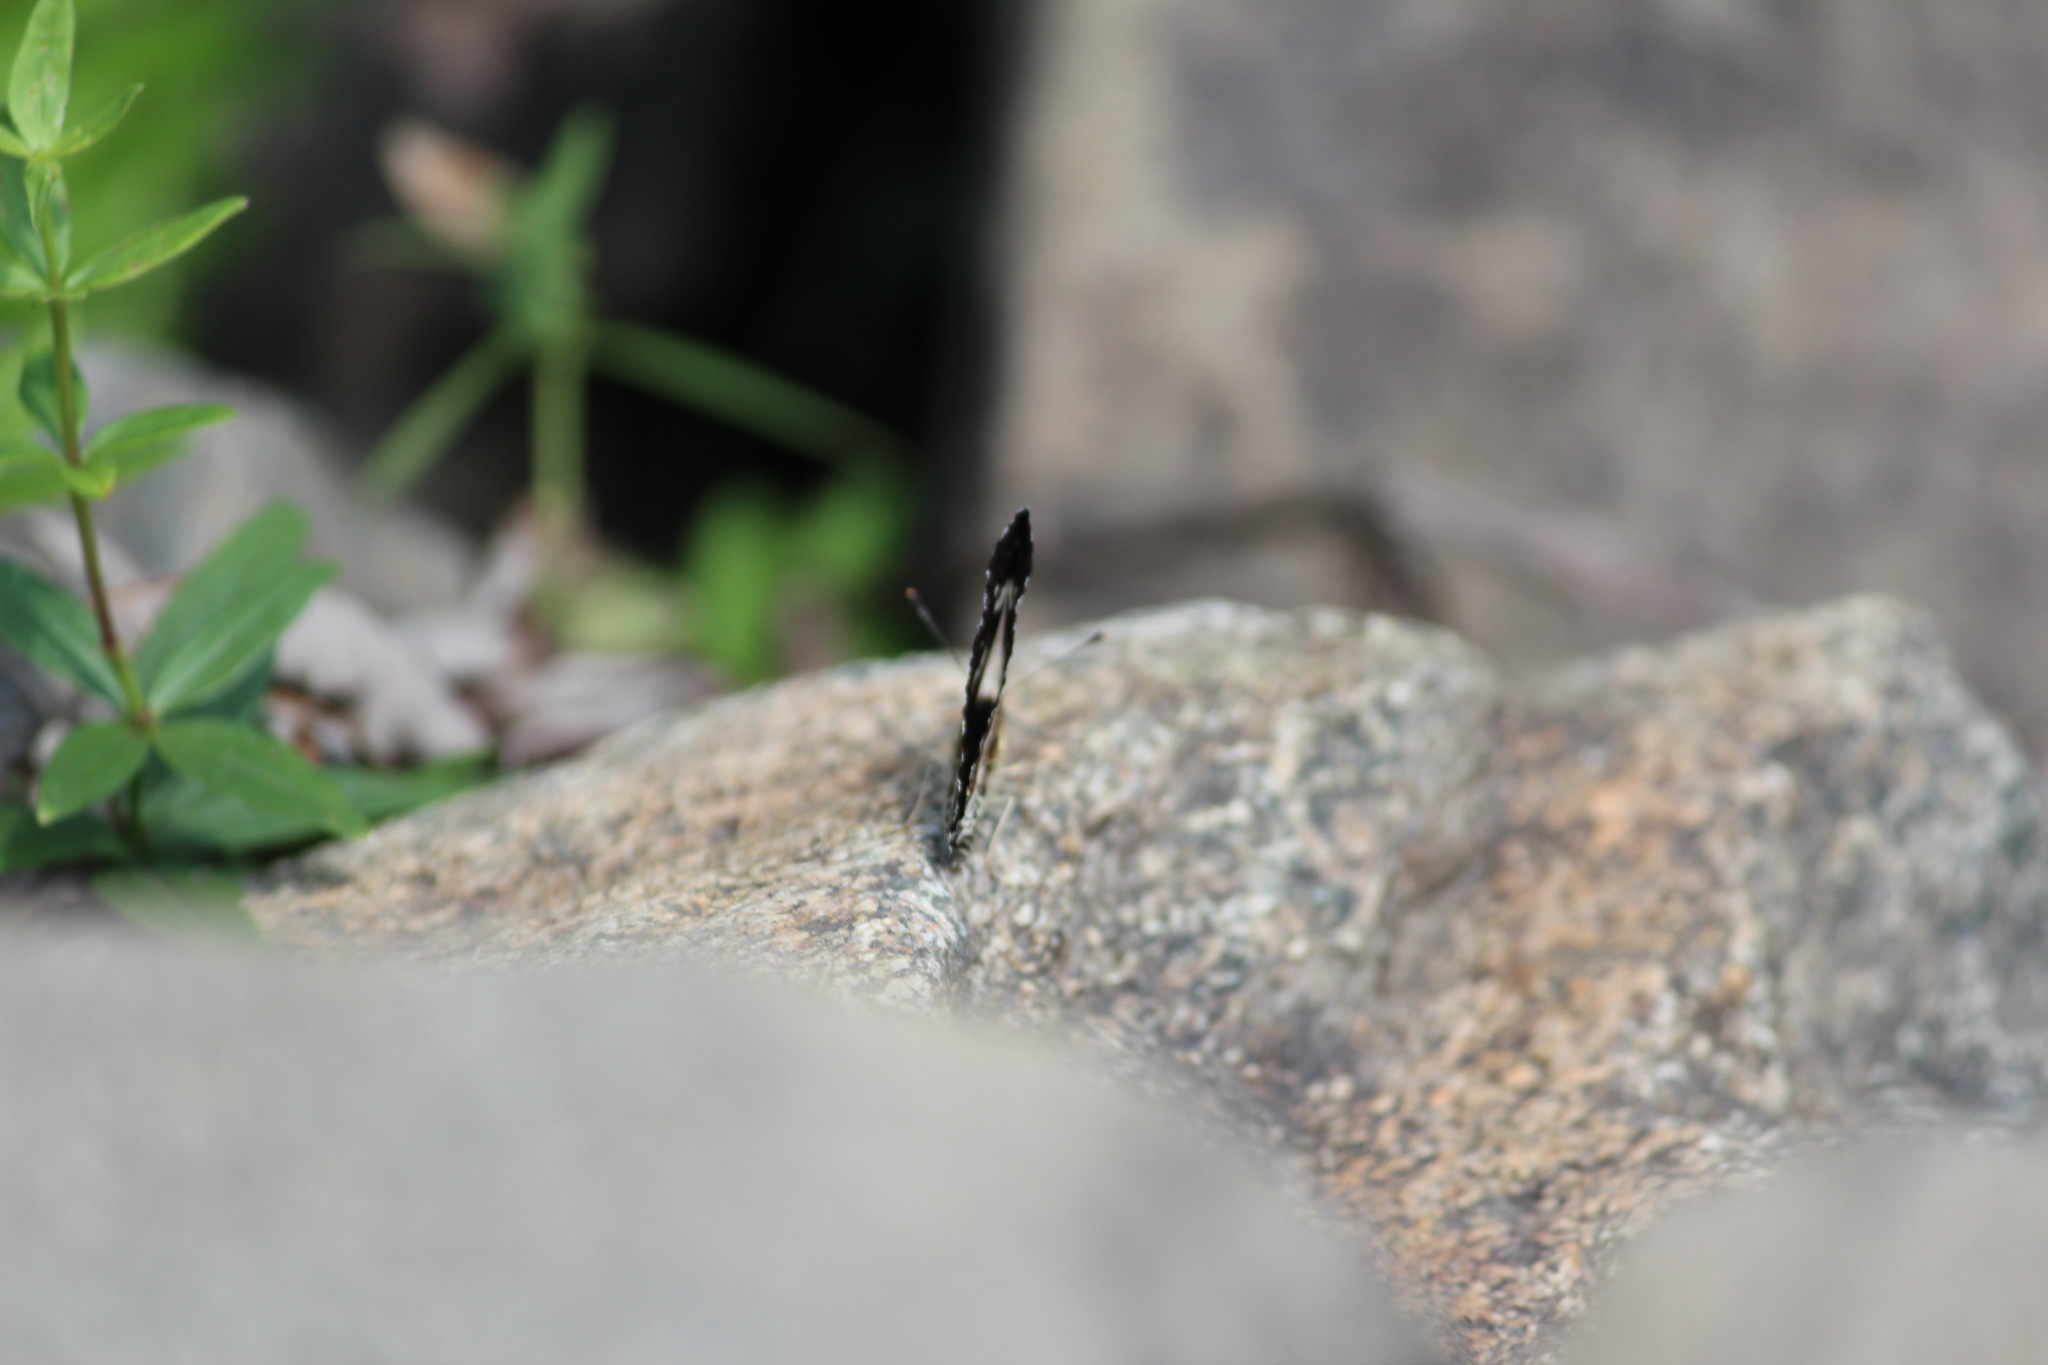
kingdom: Animalia
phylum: Arthropoda
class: Insecta
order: Lepidoptera
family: Nymphalidae
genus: Araschnia
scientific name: Araschnia levana
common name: Map butterfly
